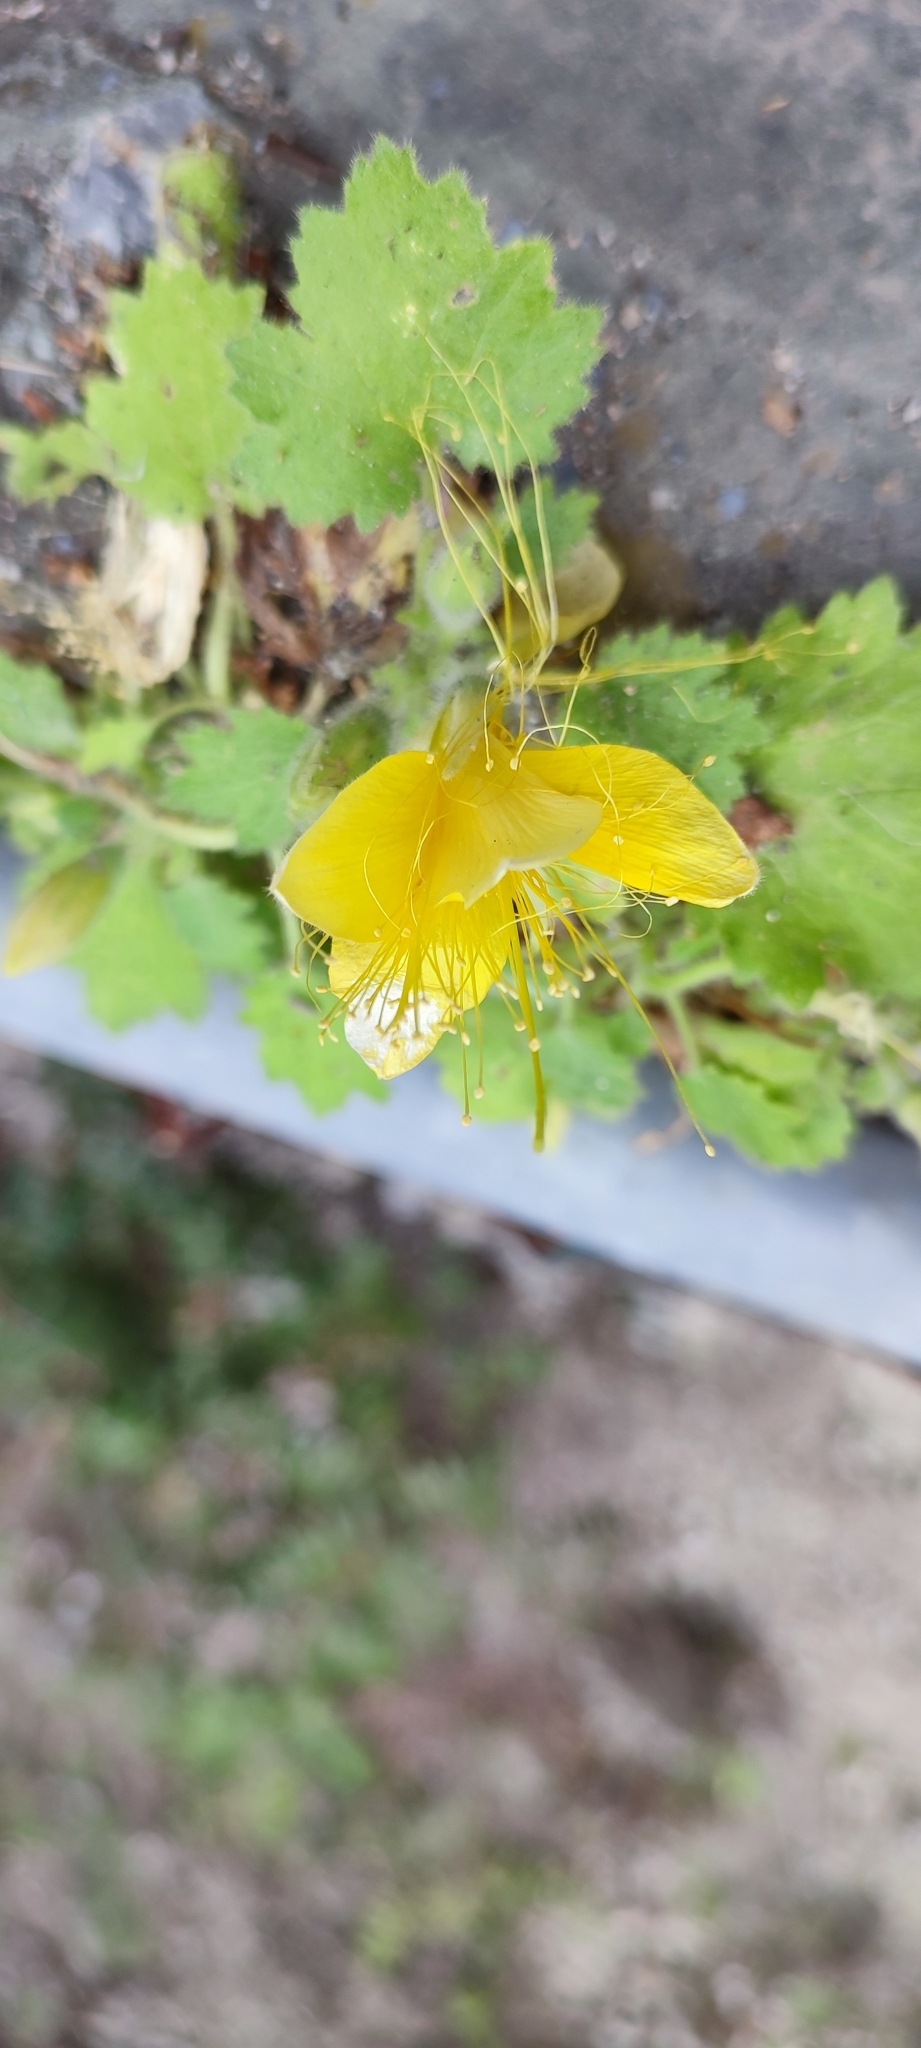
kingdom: Plantae
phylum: Tracheophyta
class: Magnoliopsida
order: Cornales
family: Loasaceae
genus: Eucnide
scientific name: Eucnide bartonioides
